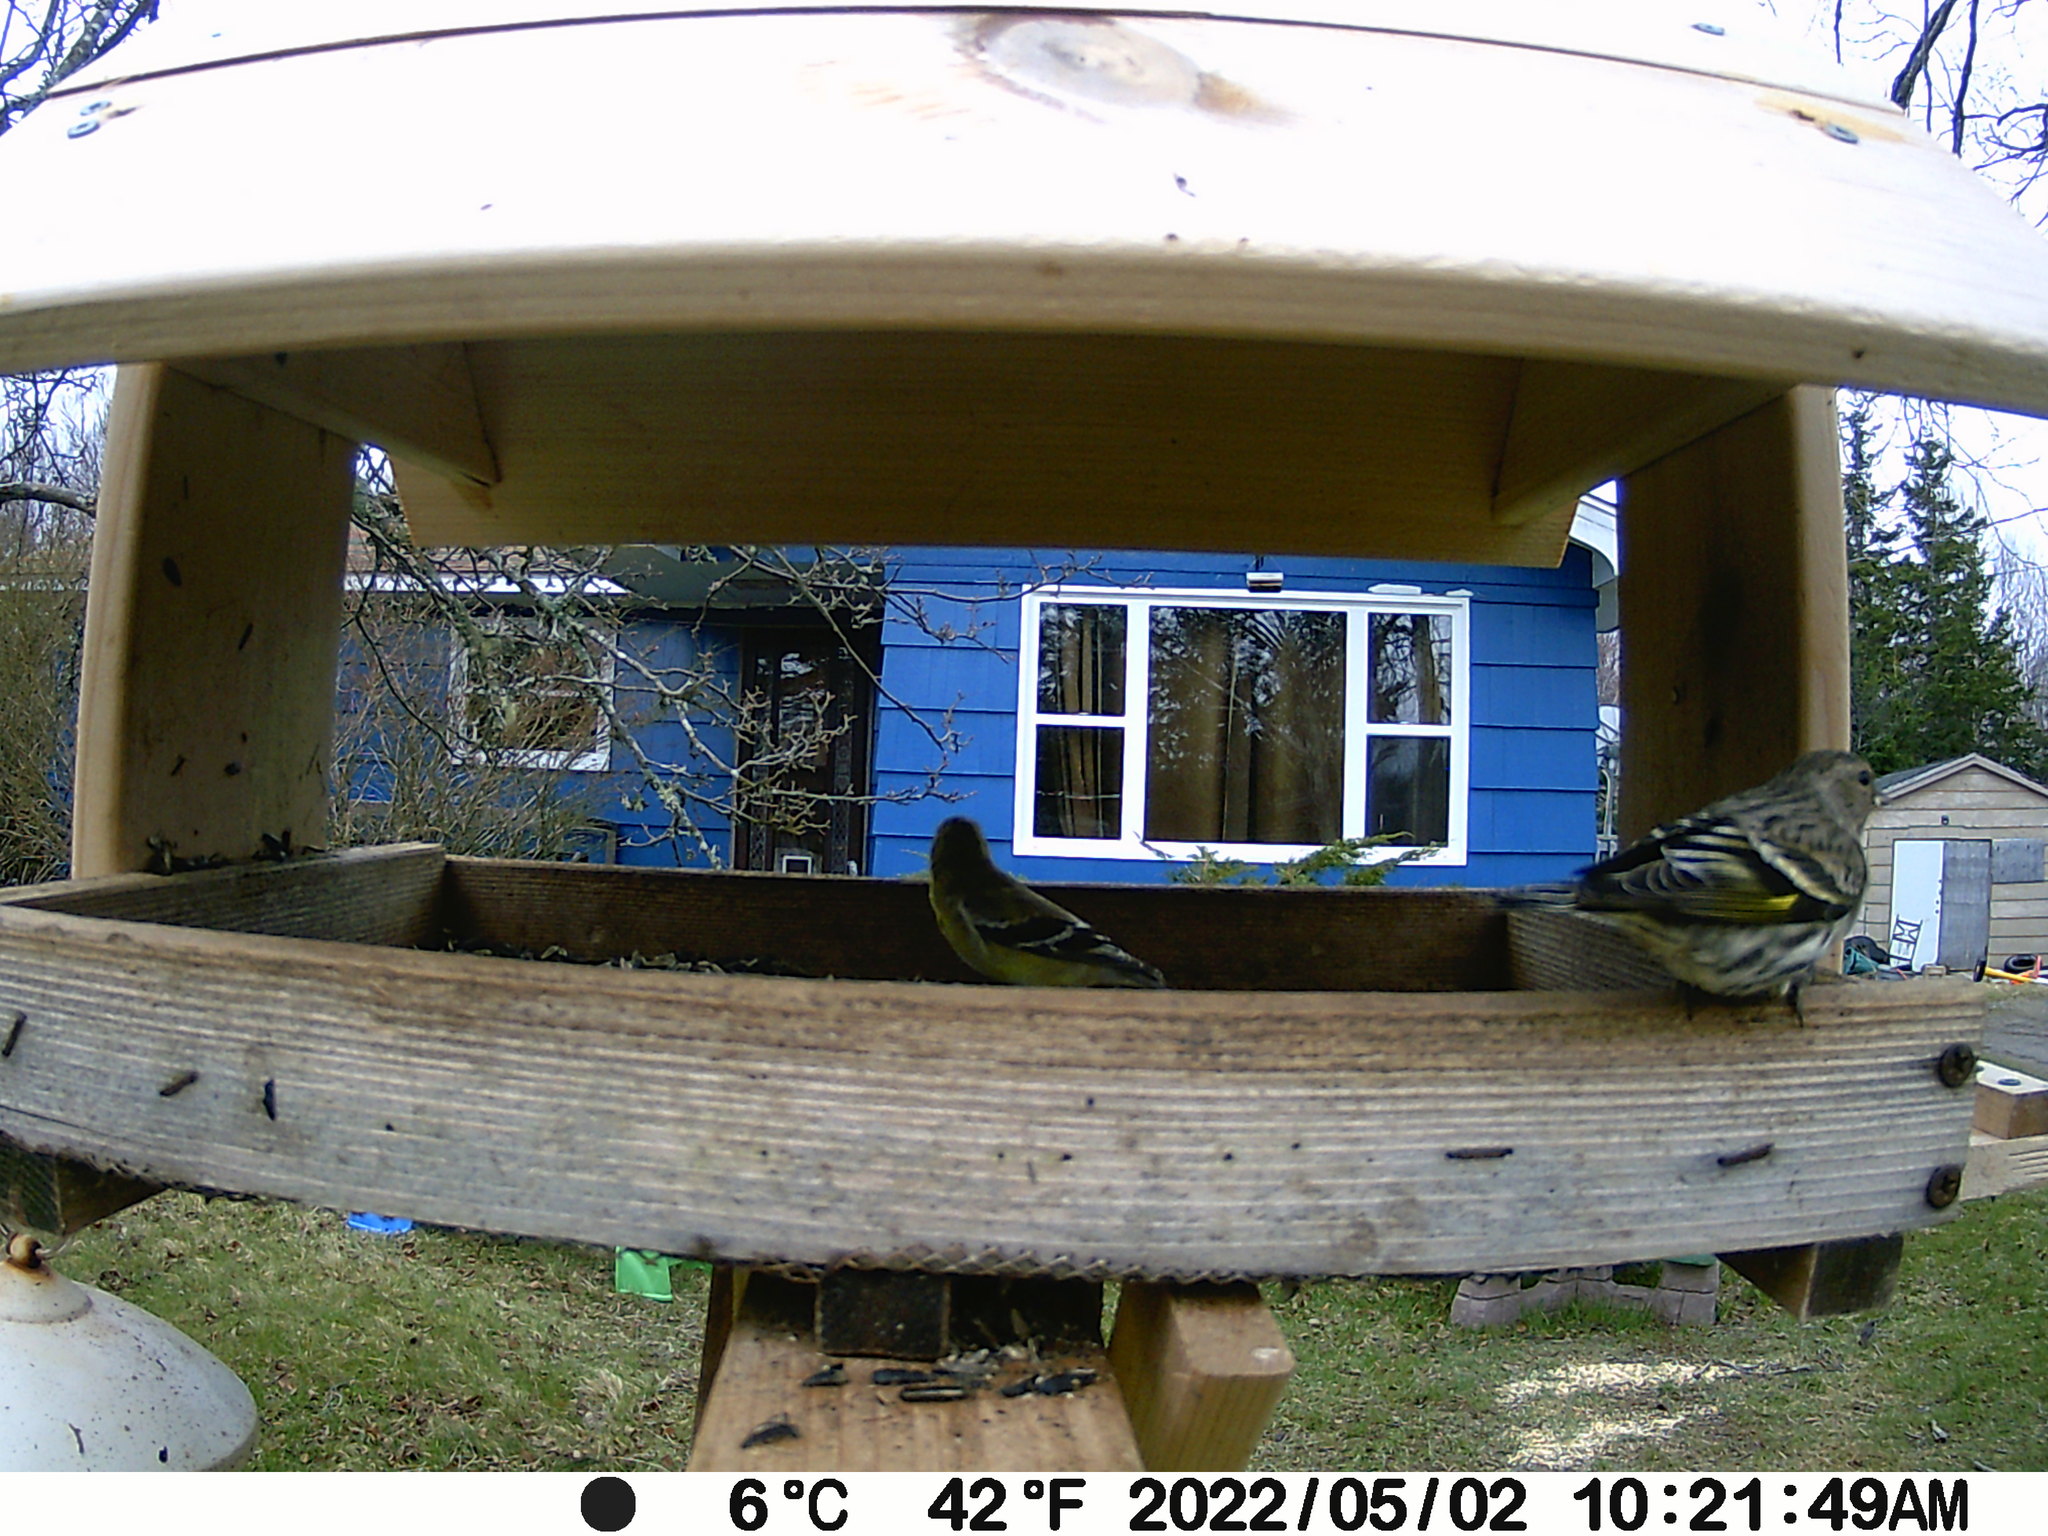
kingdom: Animalia
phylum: Chordata
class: Aves
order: Passeriformes
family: Fringillidae
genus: Spinus
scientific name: Spinus pinus
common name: Pine siskin
